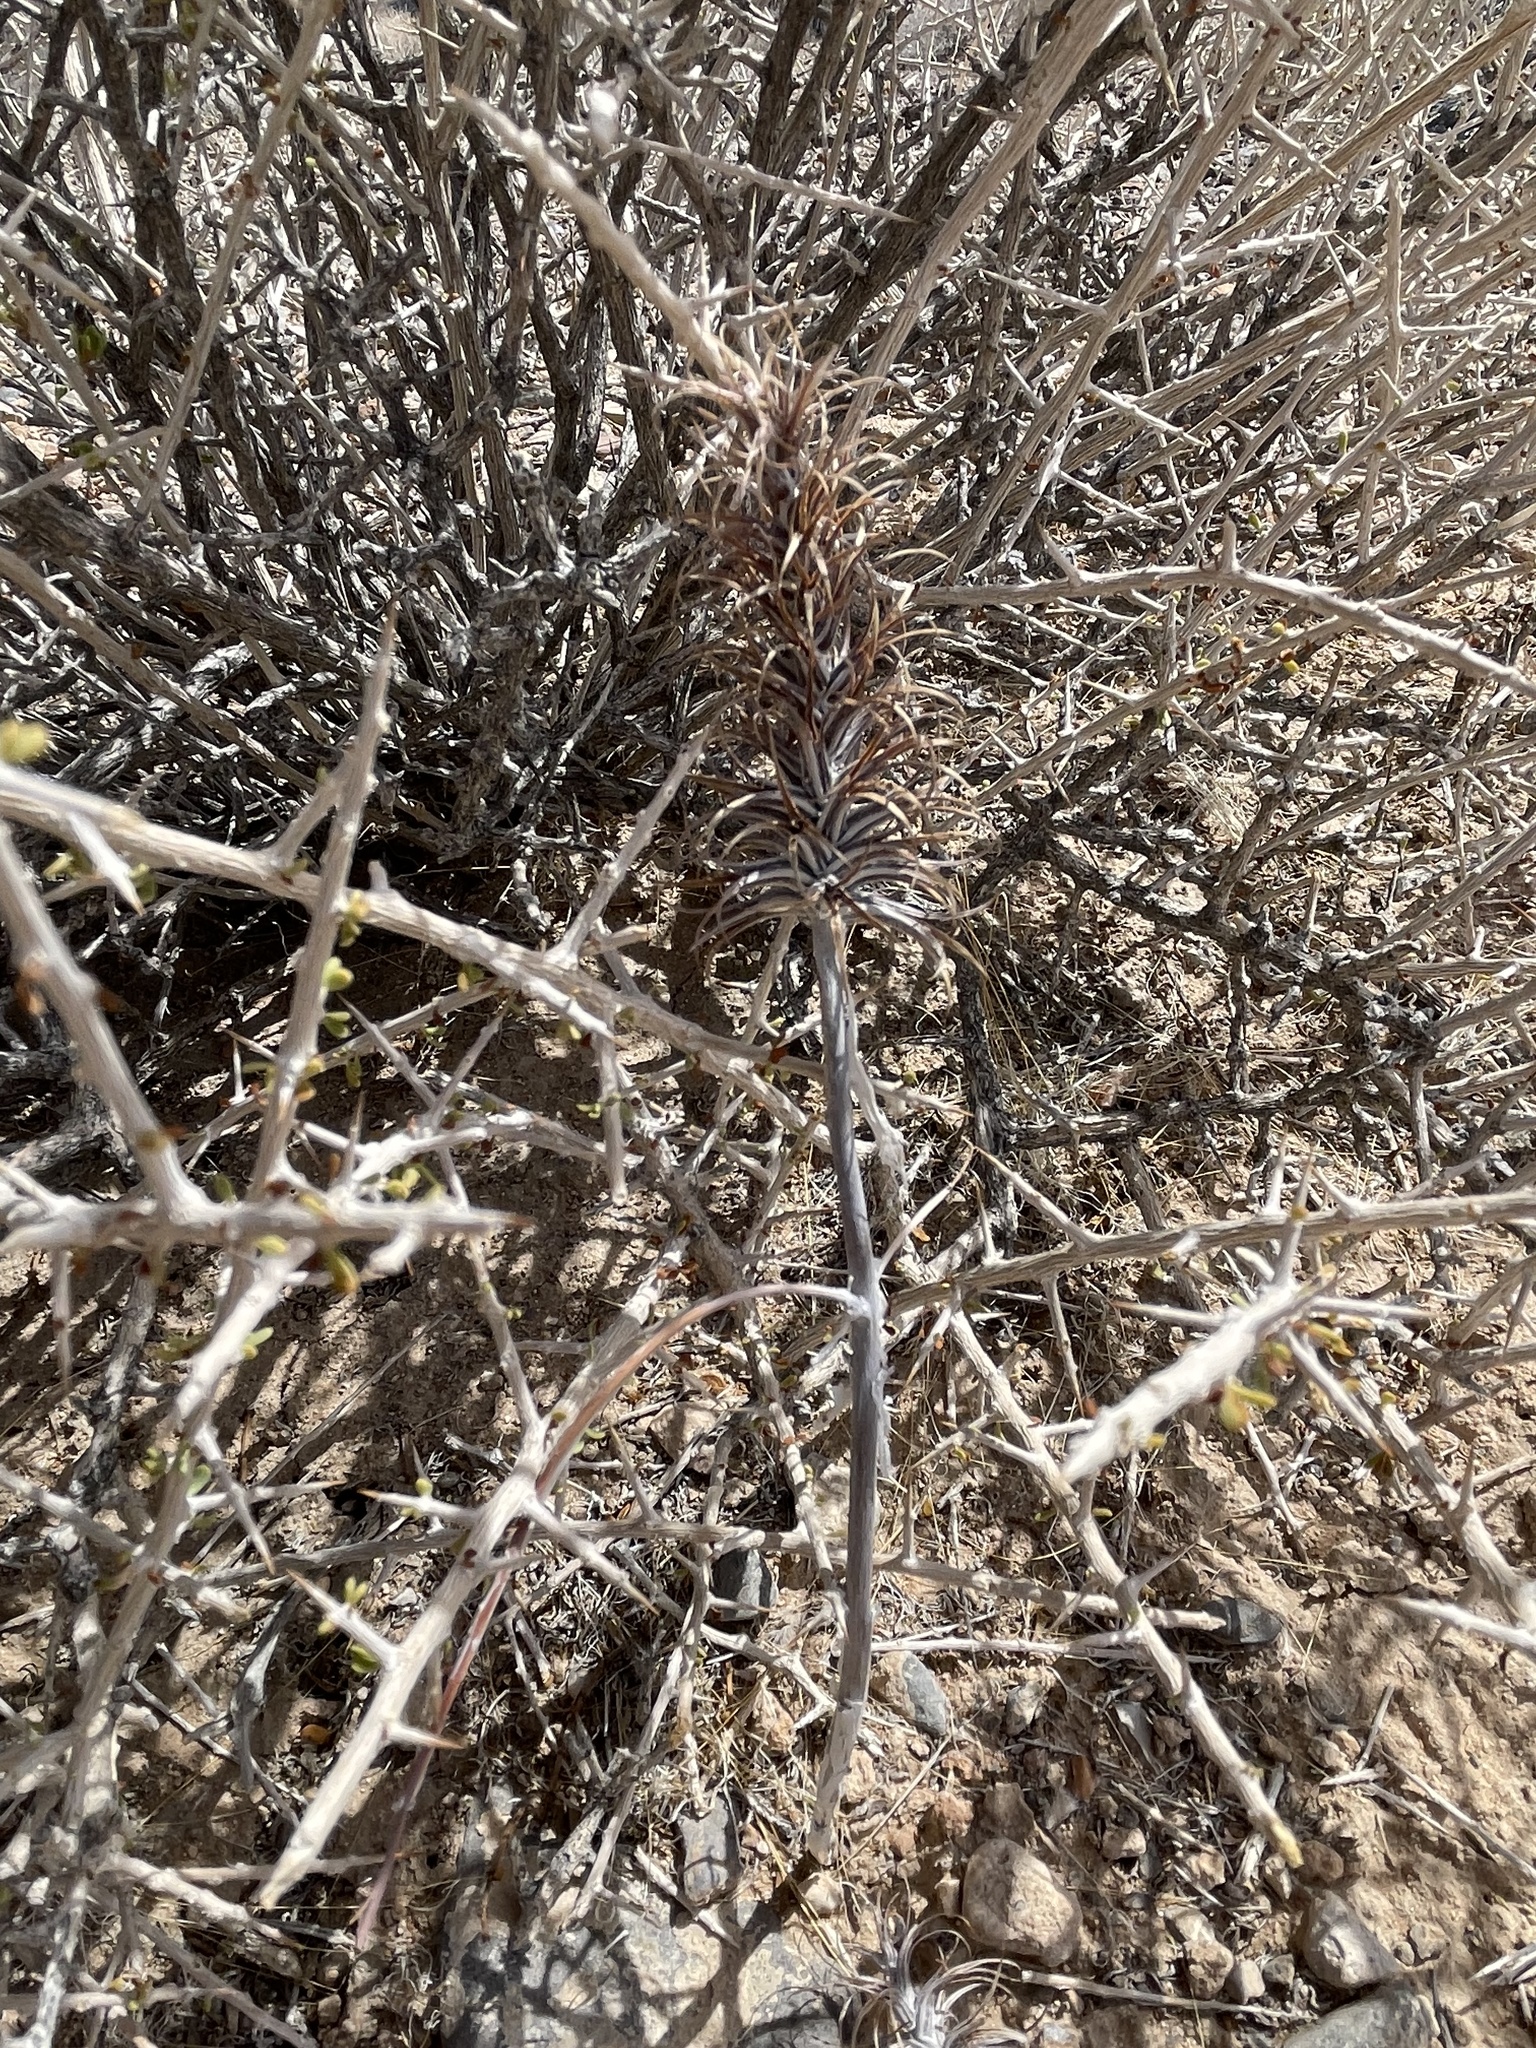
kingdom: Plantae
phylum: Tracheophyta
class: Magnoliopsida
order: Myrtales
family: Onagraceae
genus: Eremothera
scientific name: Eremothera boothii
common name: Booth's evening primrose
